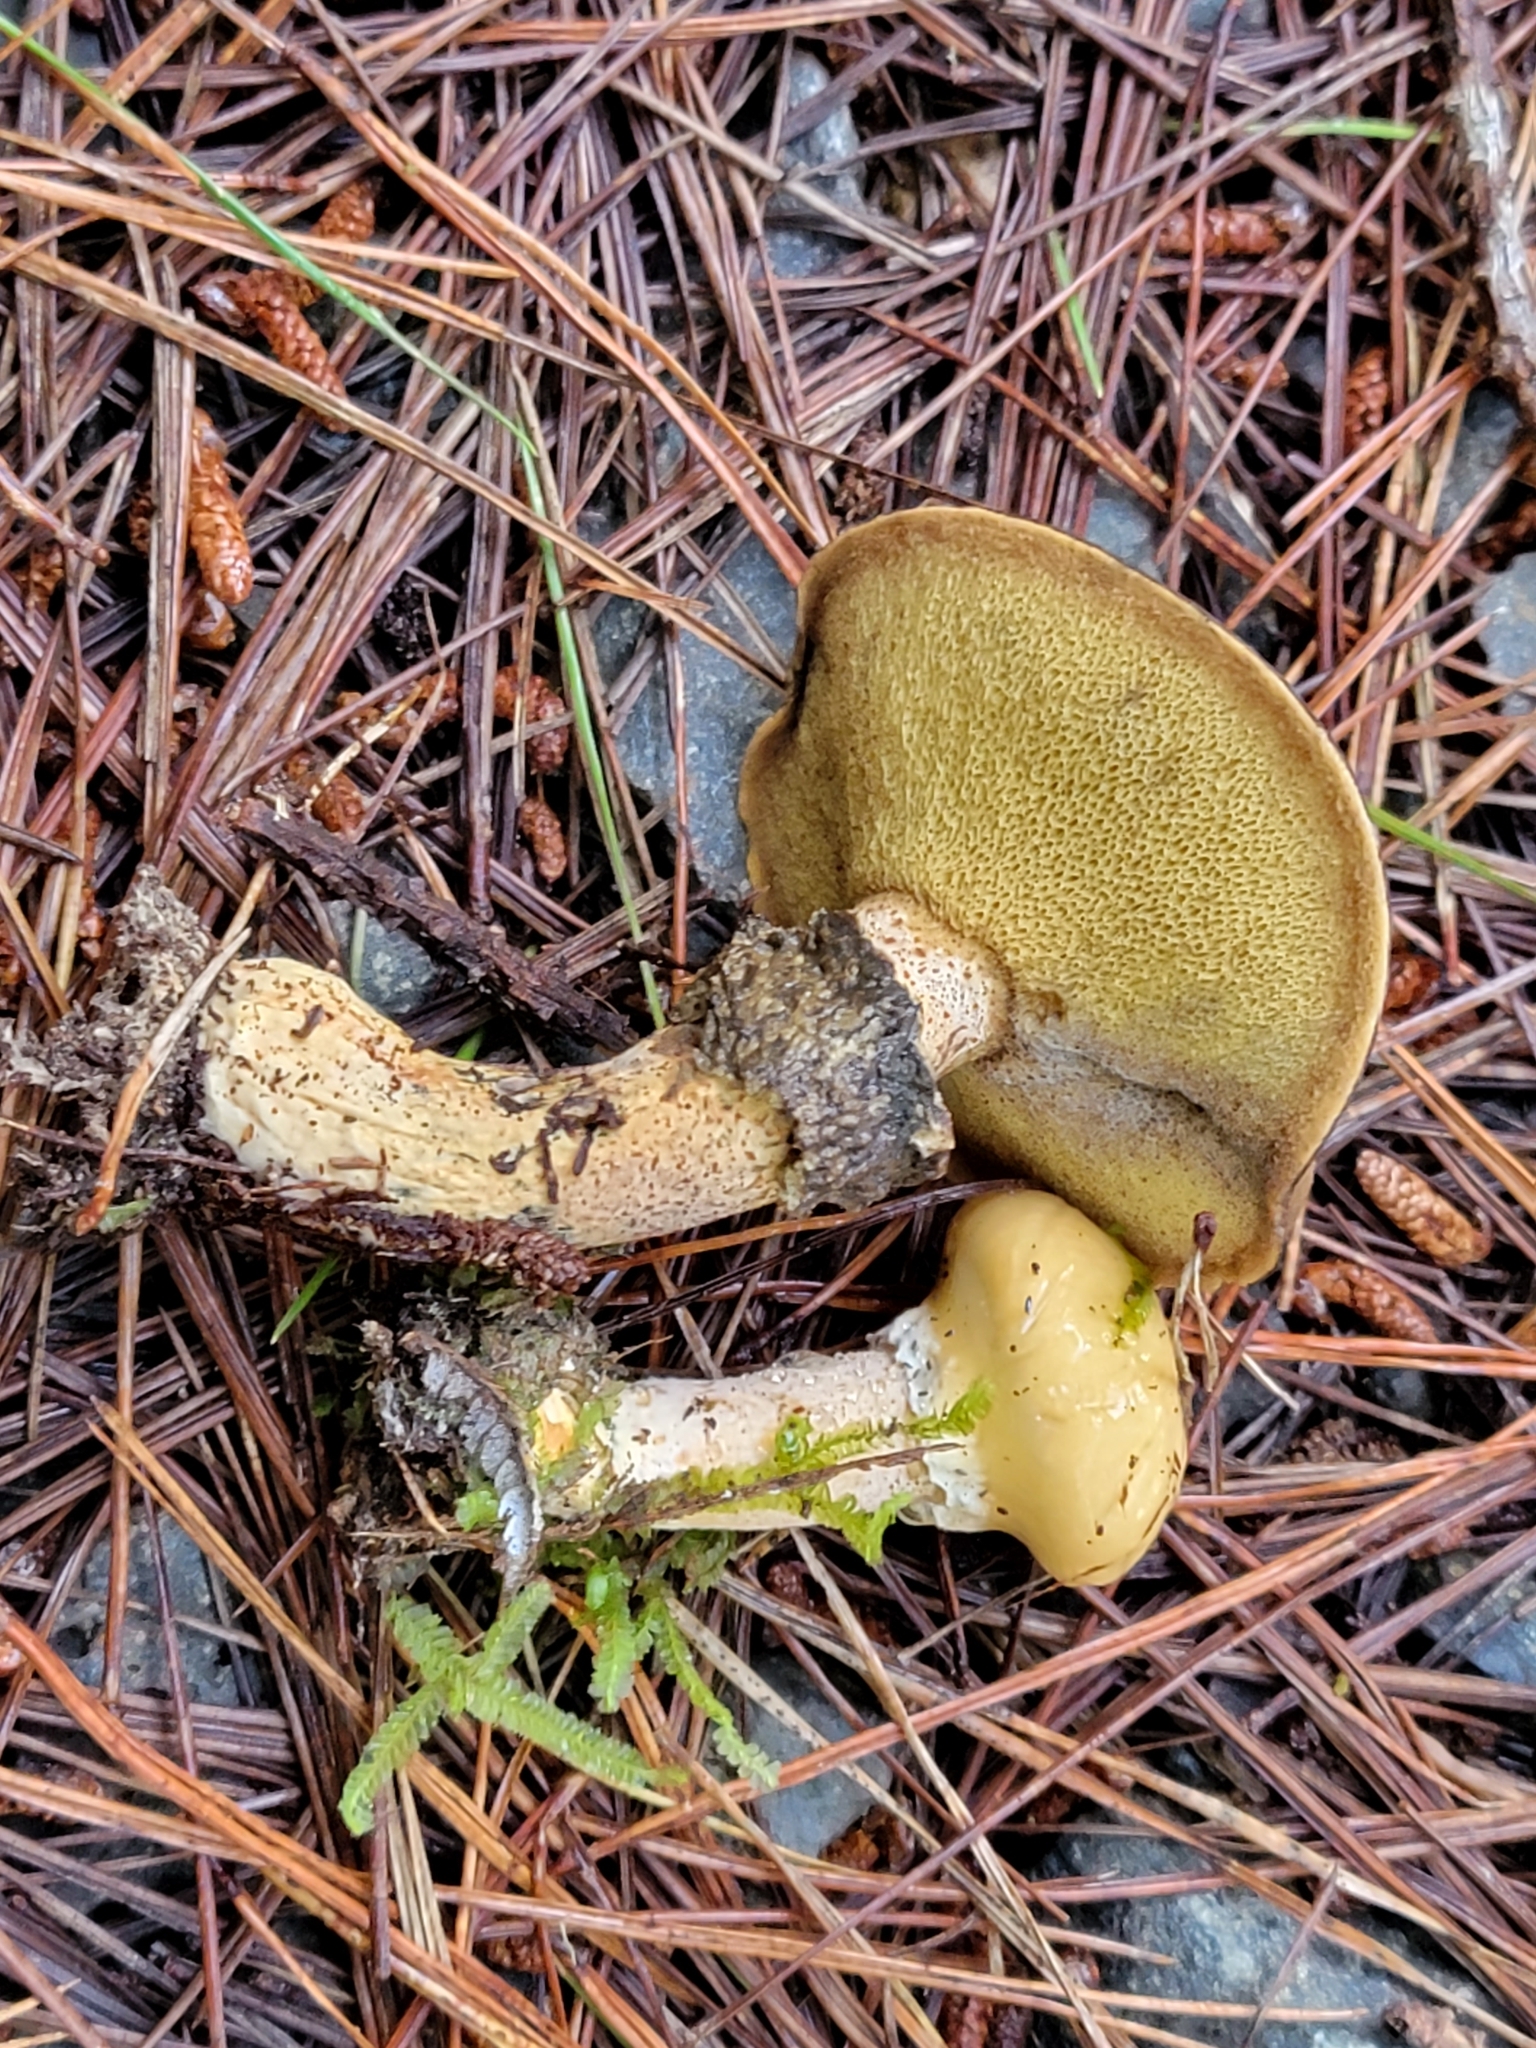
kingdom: Fungi
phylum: Basidiomycota
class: Agaricomycetes
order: Boletales
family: Suillaceae
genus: Suillus
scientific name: Suillus salmonicolor
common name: Slippery jill
